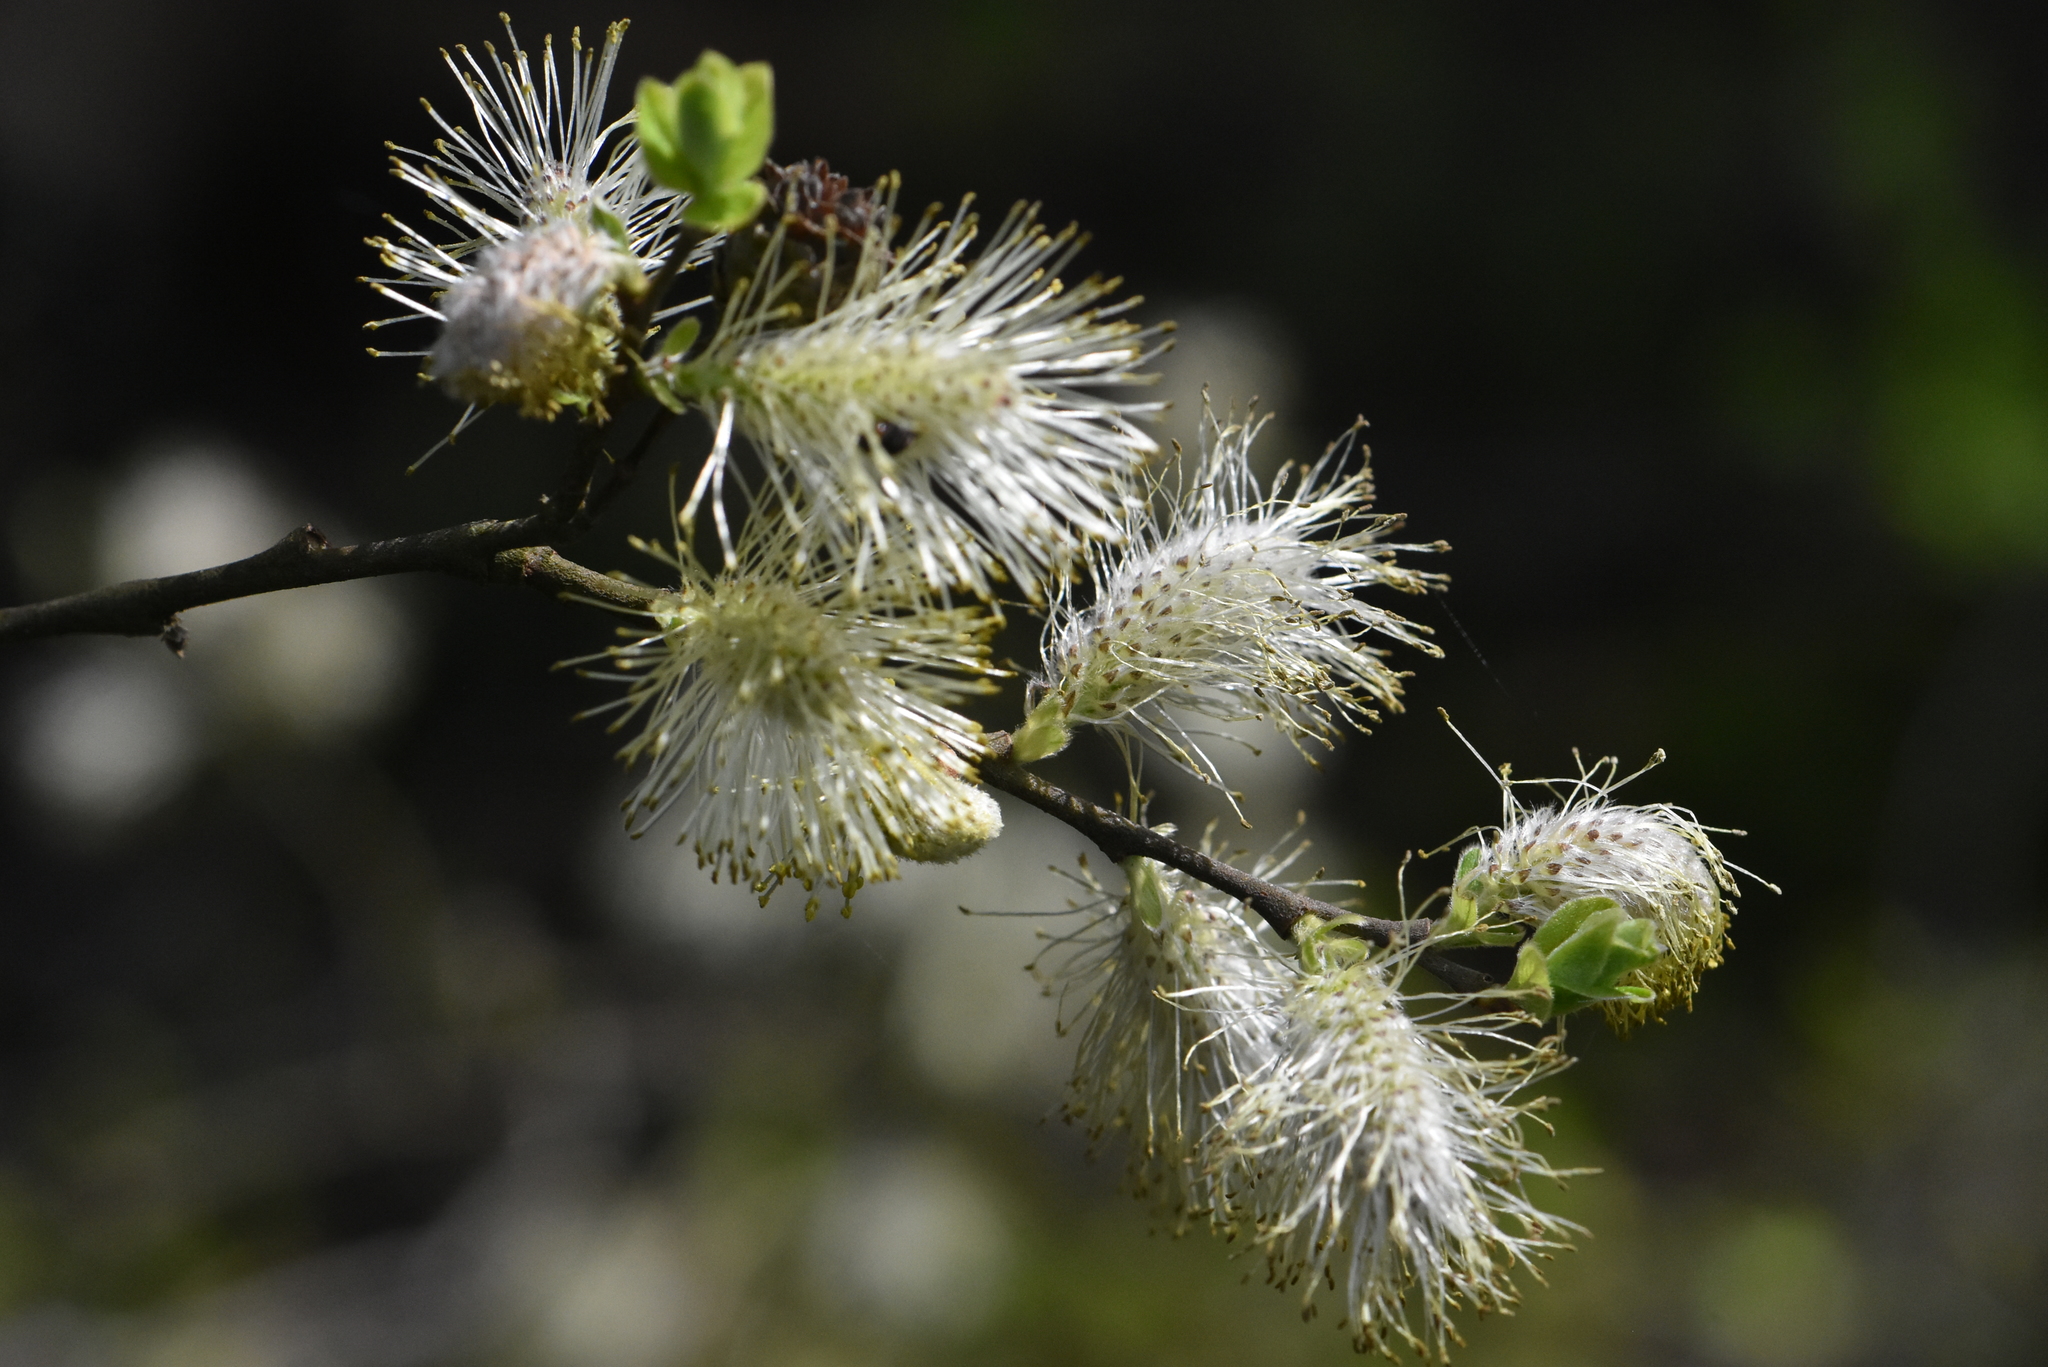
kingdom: Plantae
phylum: Tracheophyta
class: Magnoliopsida
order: Malpighiales
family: Salicaceae
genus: Salix
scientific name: Salix aurita
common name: Eared willow
